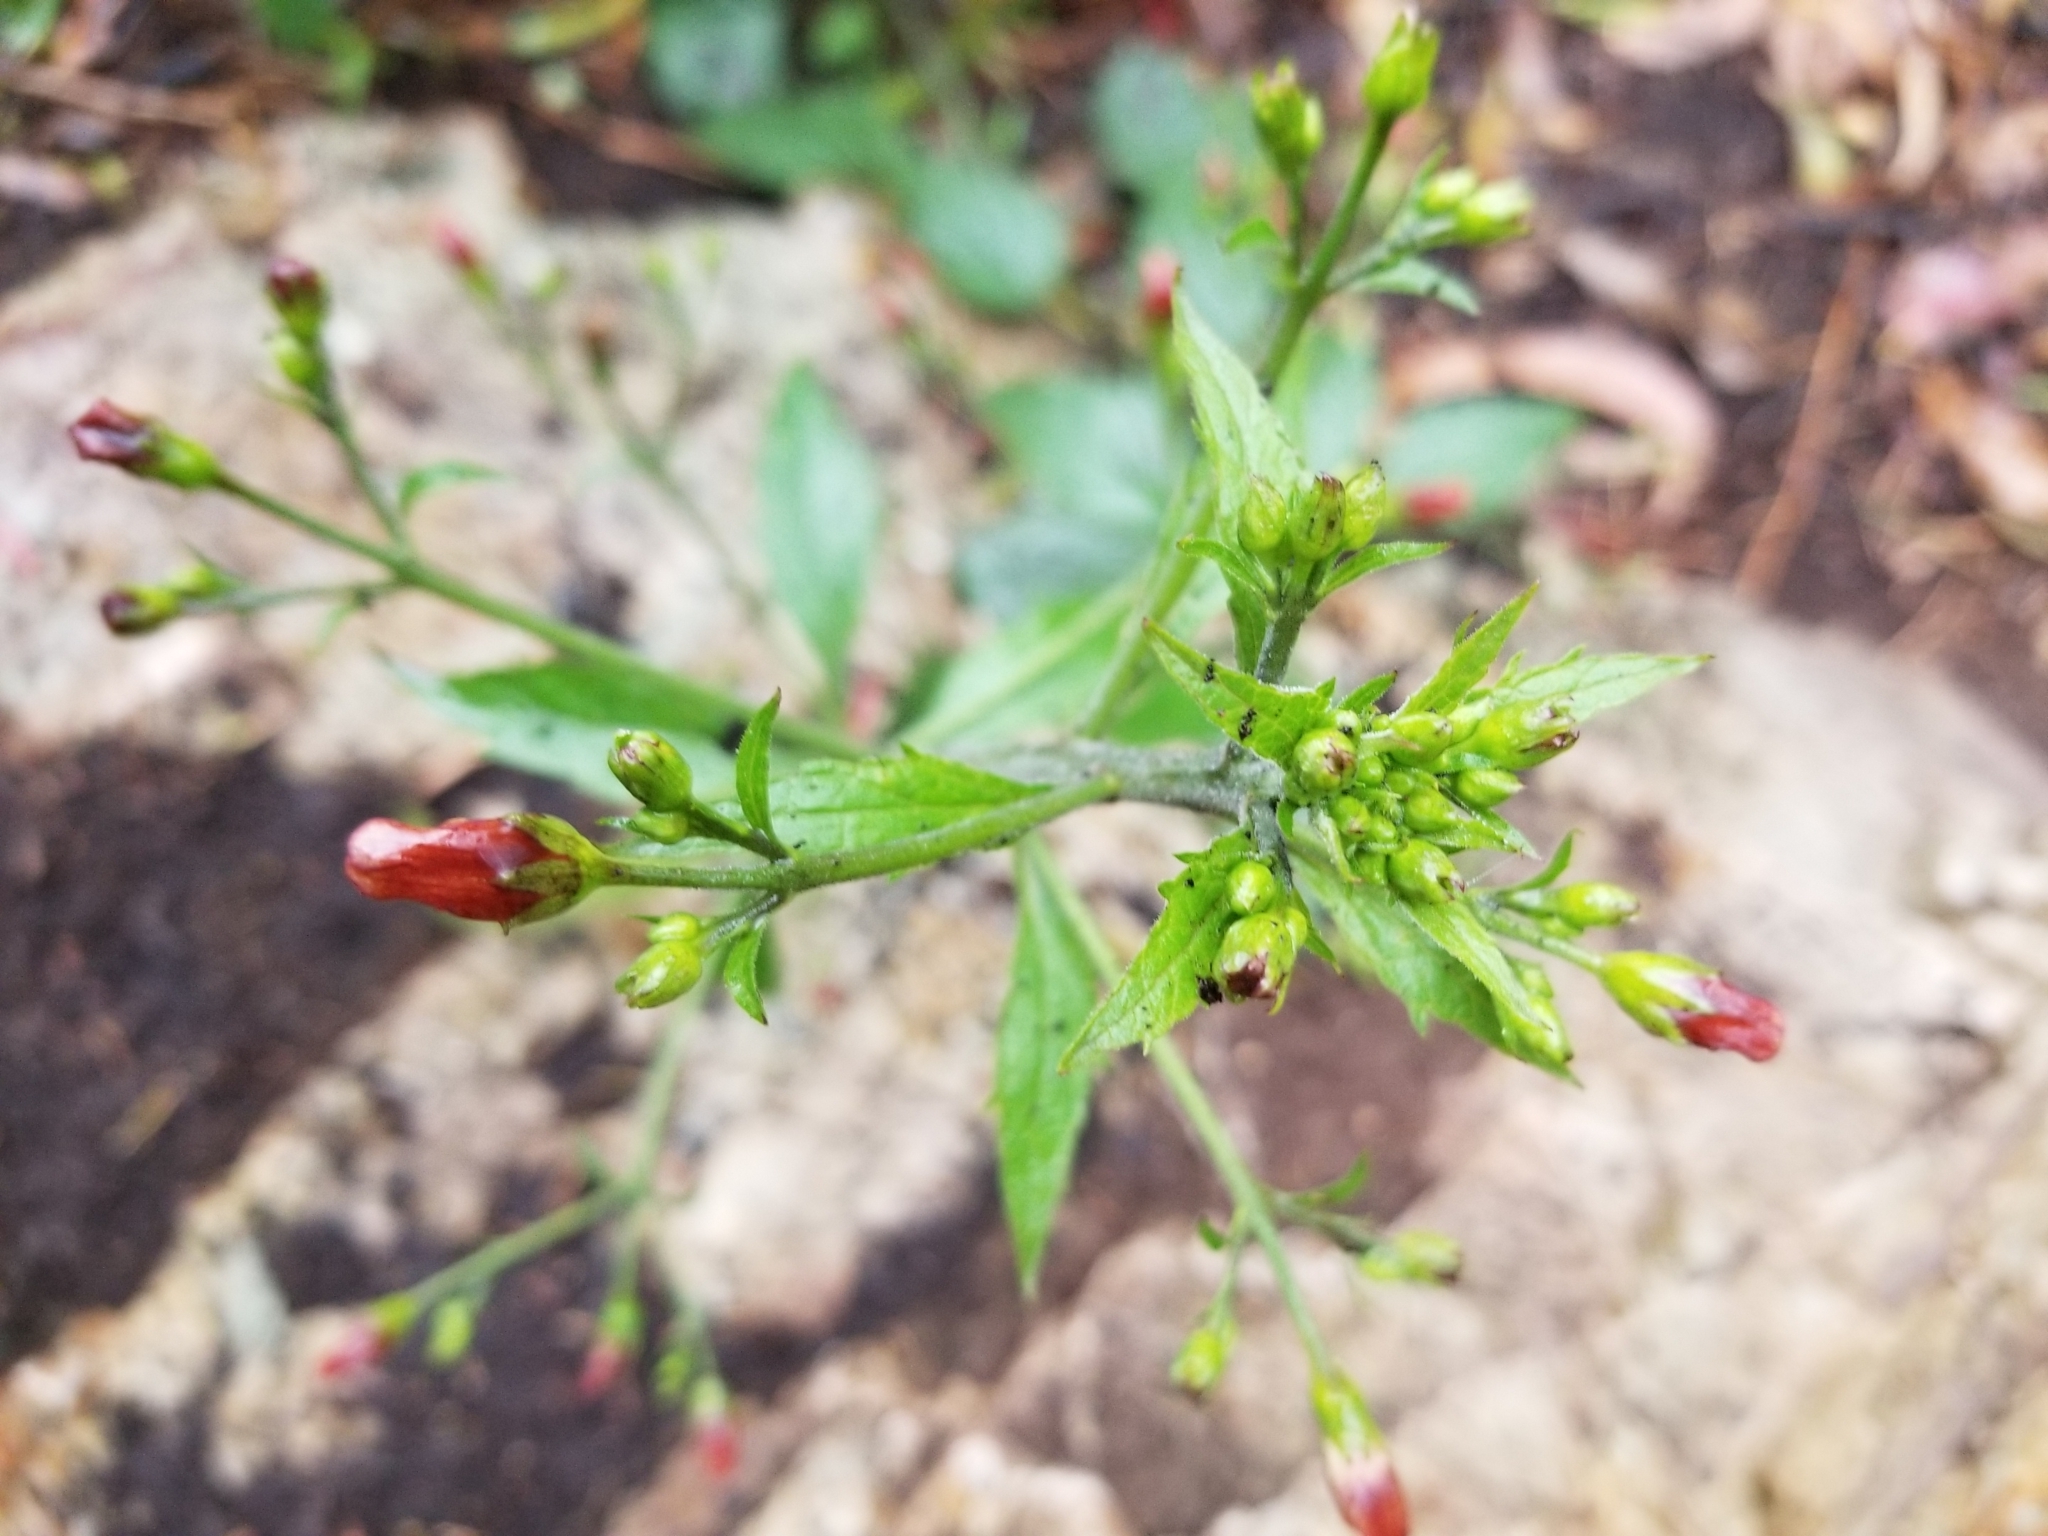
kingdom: Plantae
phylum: Tracheophyta
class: Magnoliopsida
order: Lamiales
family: Scrophulariaceae
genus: Scrophularia
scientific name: Scrophularia californica
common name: California figwort
